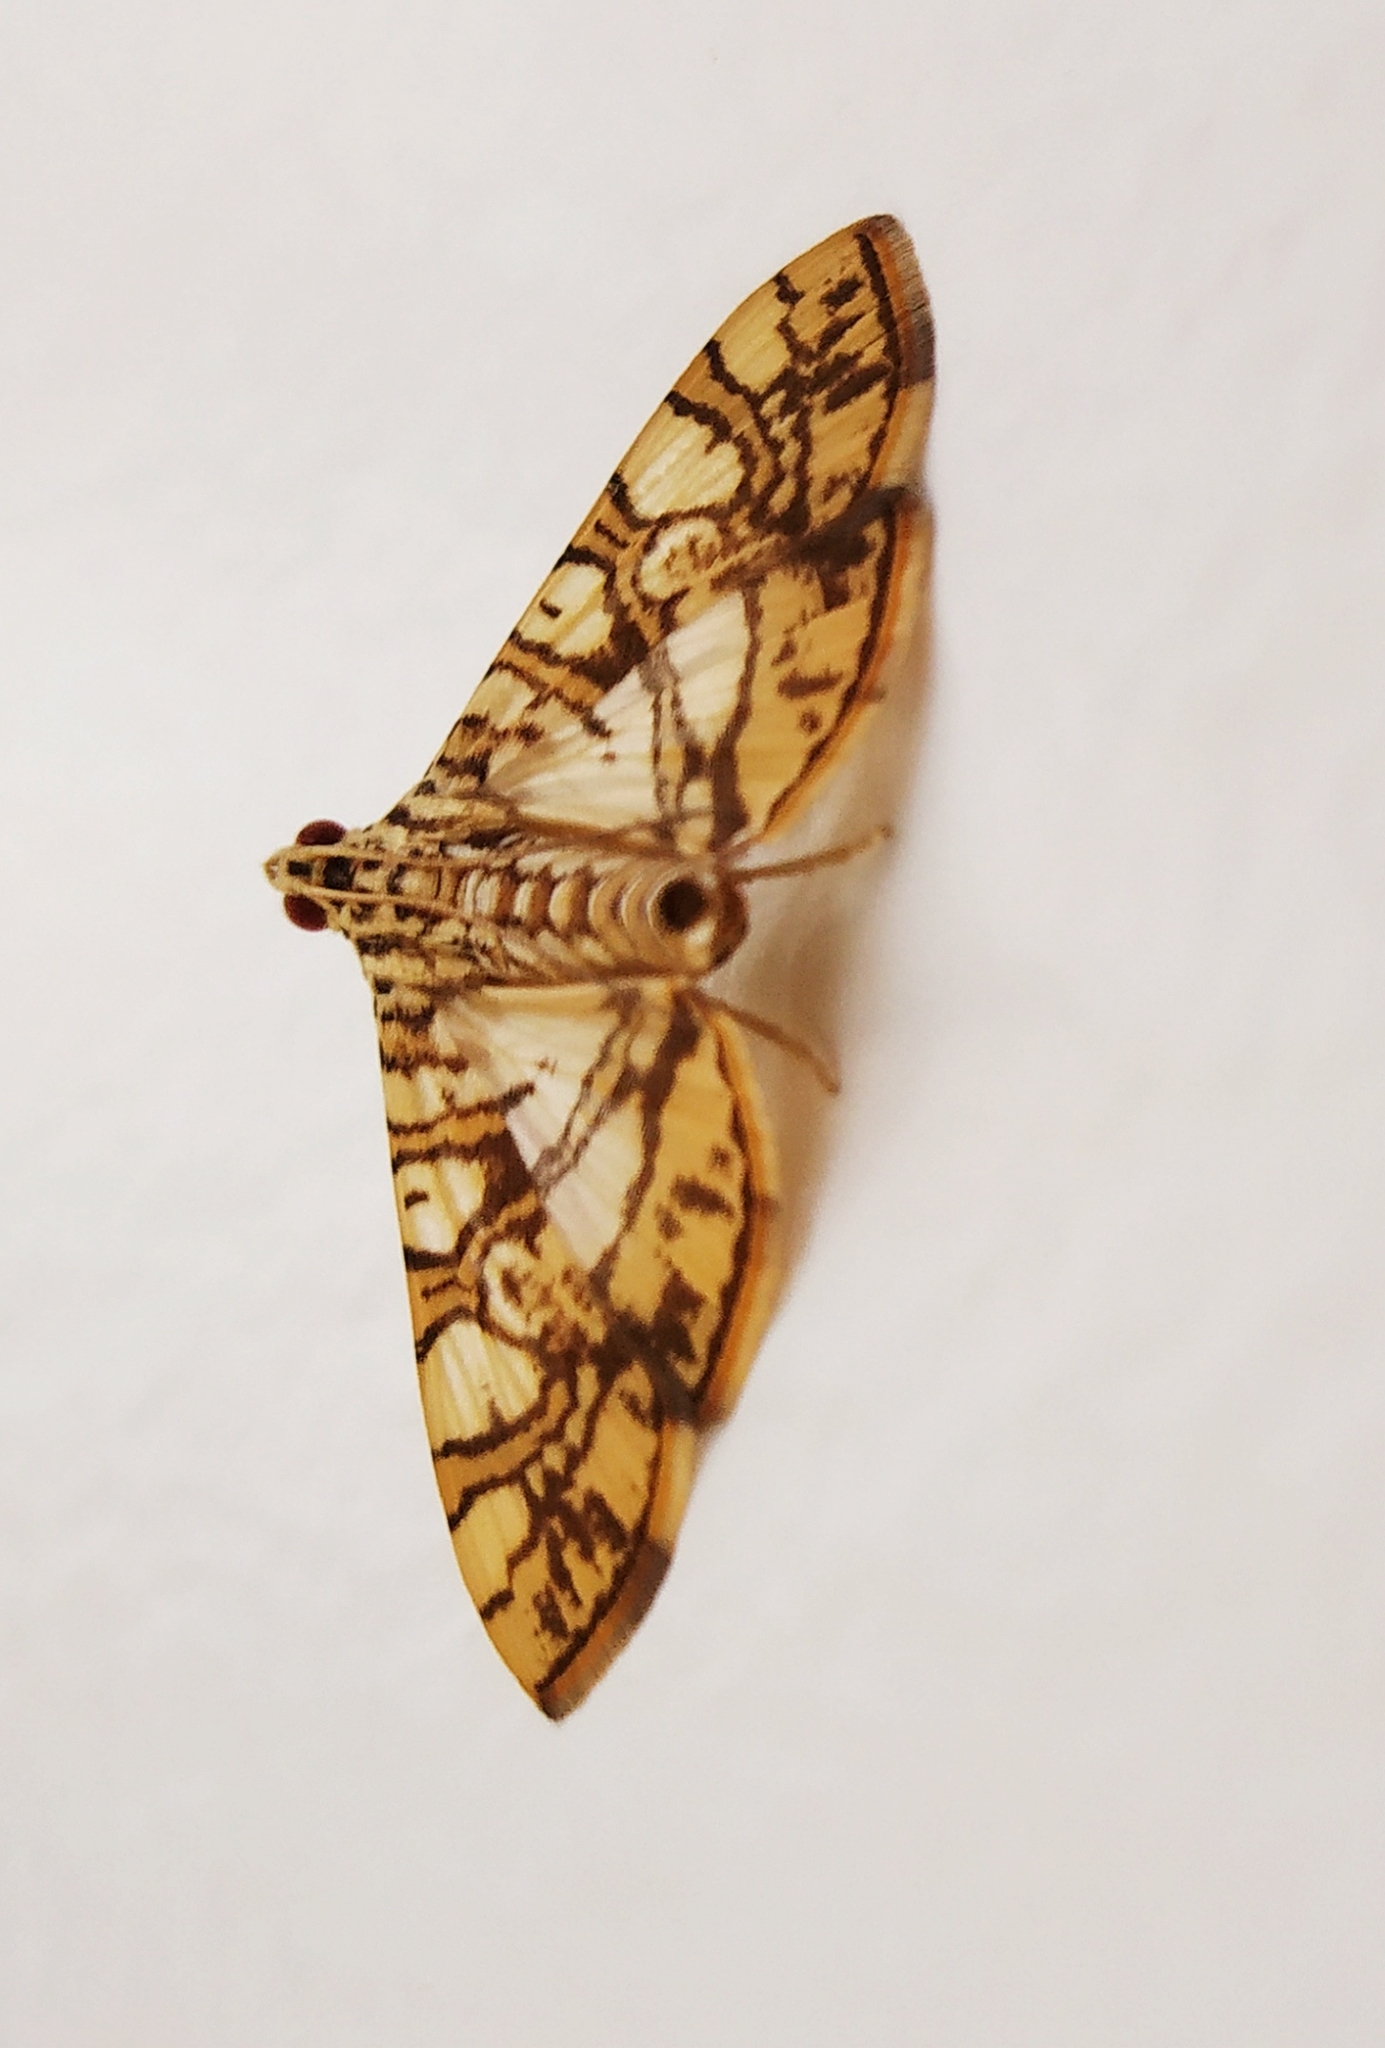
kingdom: Animalia
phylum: Arthropoda
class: Insecta
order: Lepidoptera
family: Crambidae
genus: Glyphodes
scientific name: Glyphodes caesalis
